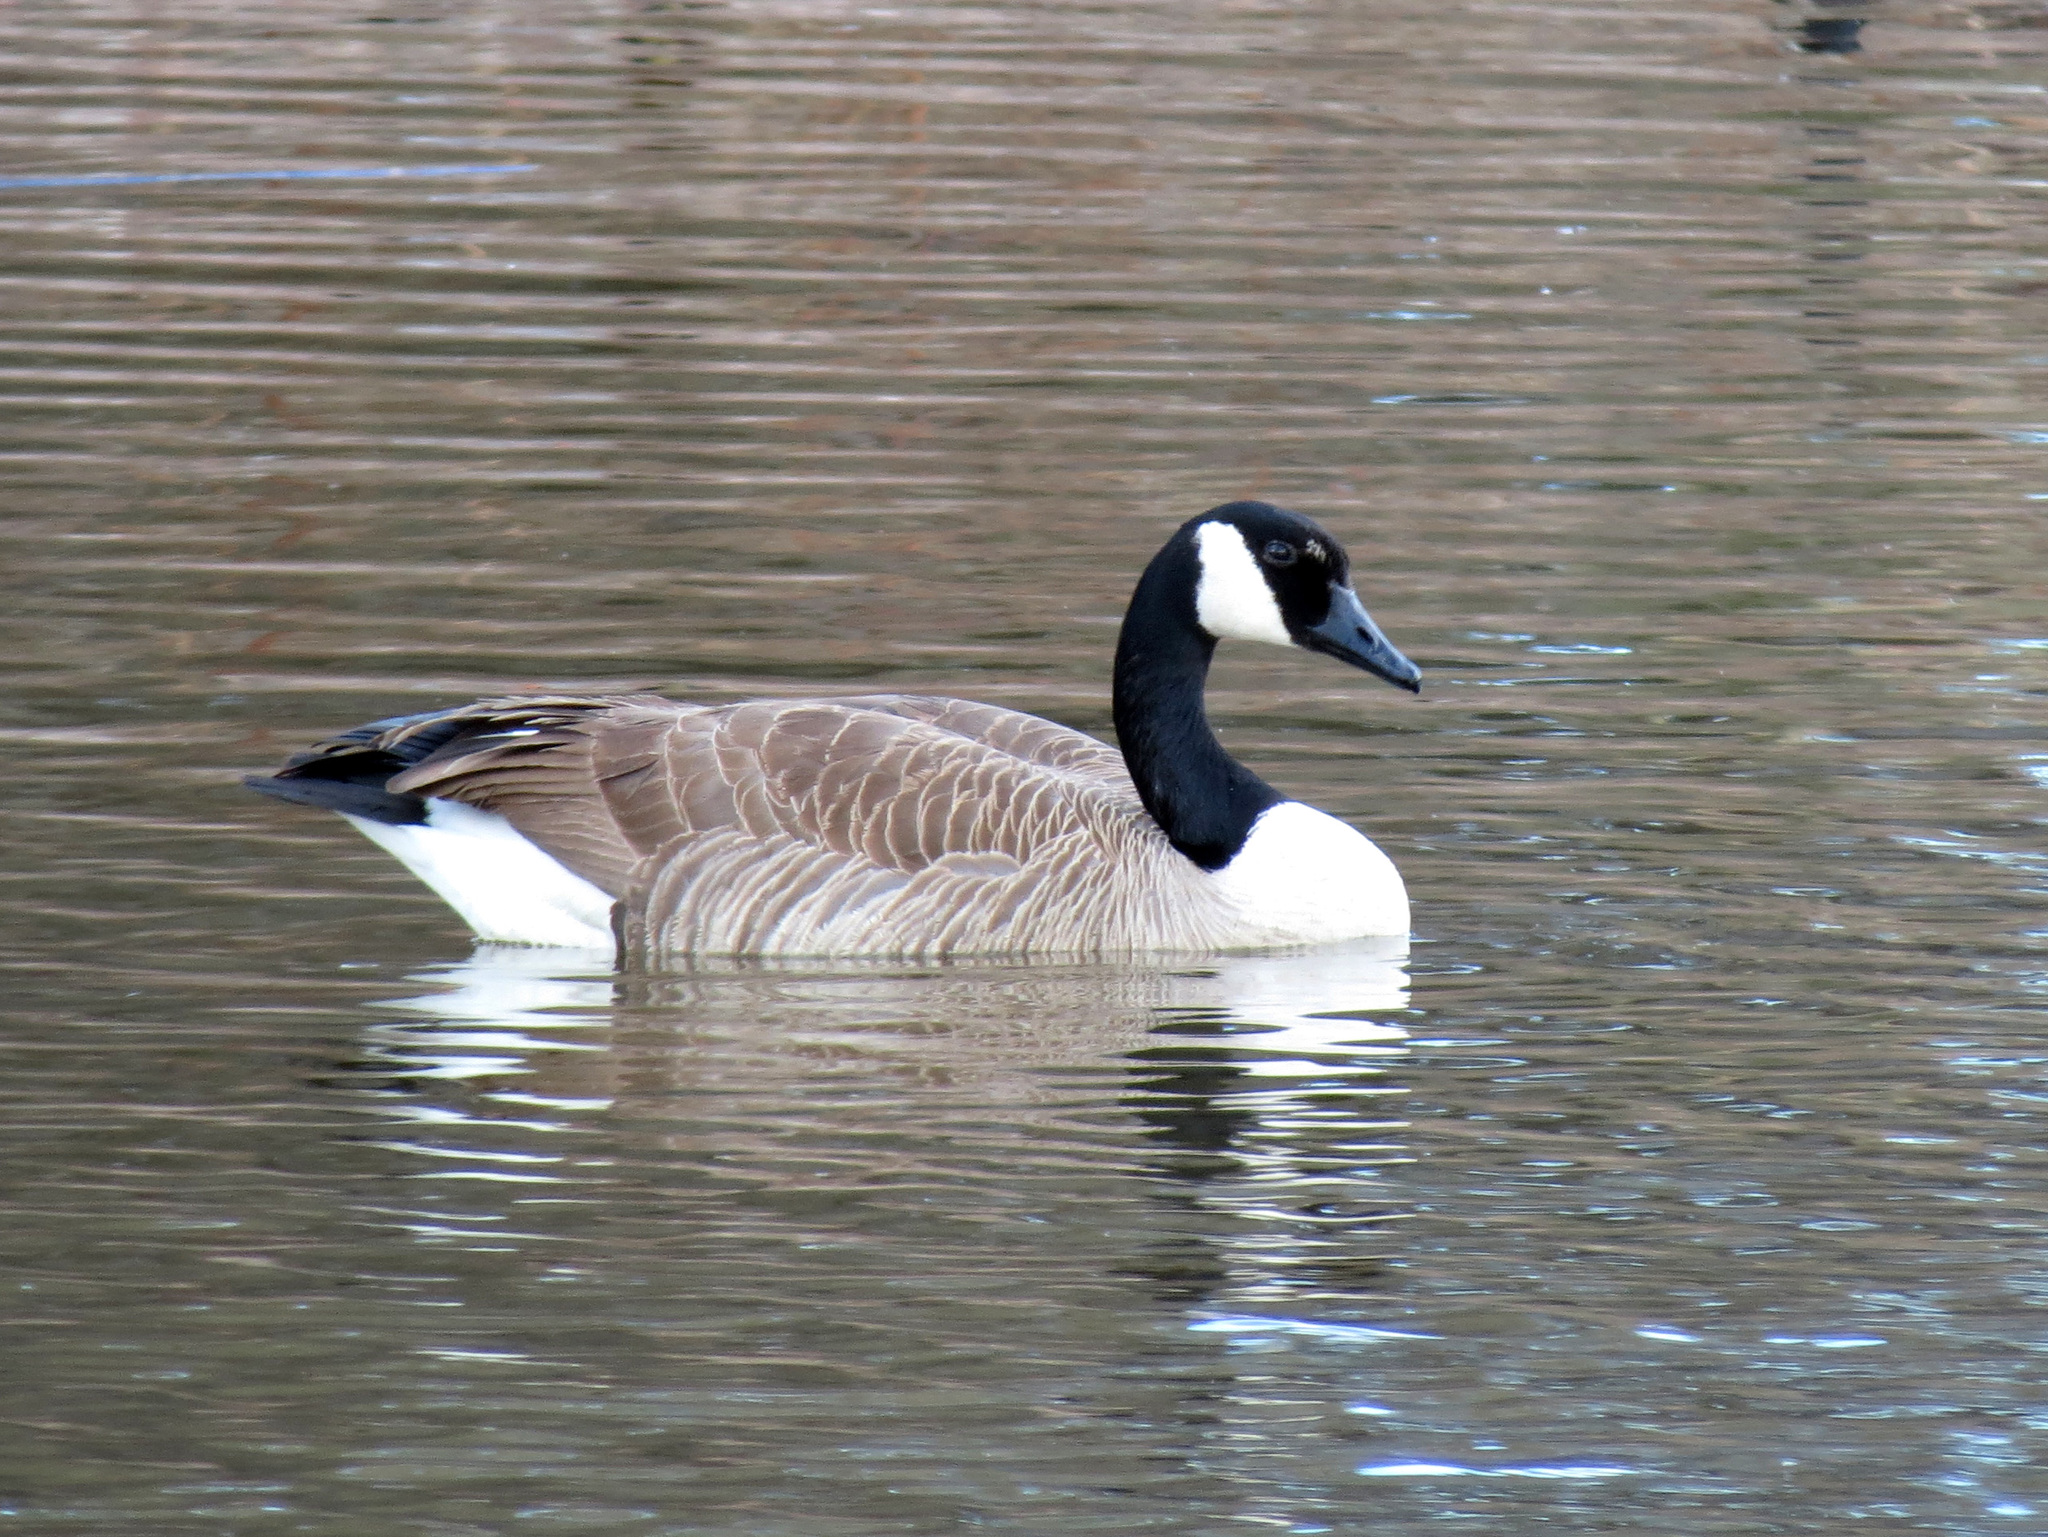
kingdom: Animalia
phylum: Chordata
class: Aves
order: Anseriformes
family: Anatidae
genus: Branta
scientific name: Branta canadensis
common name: Canada goose
